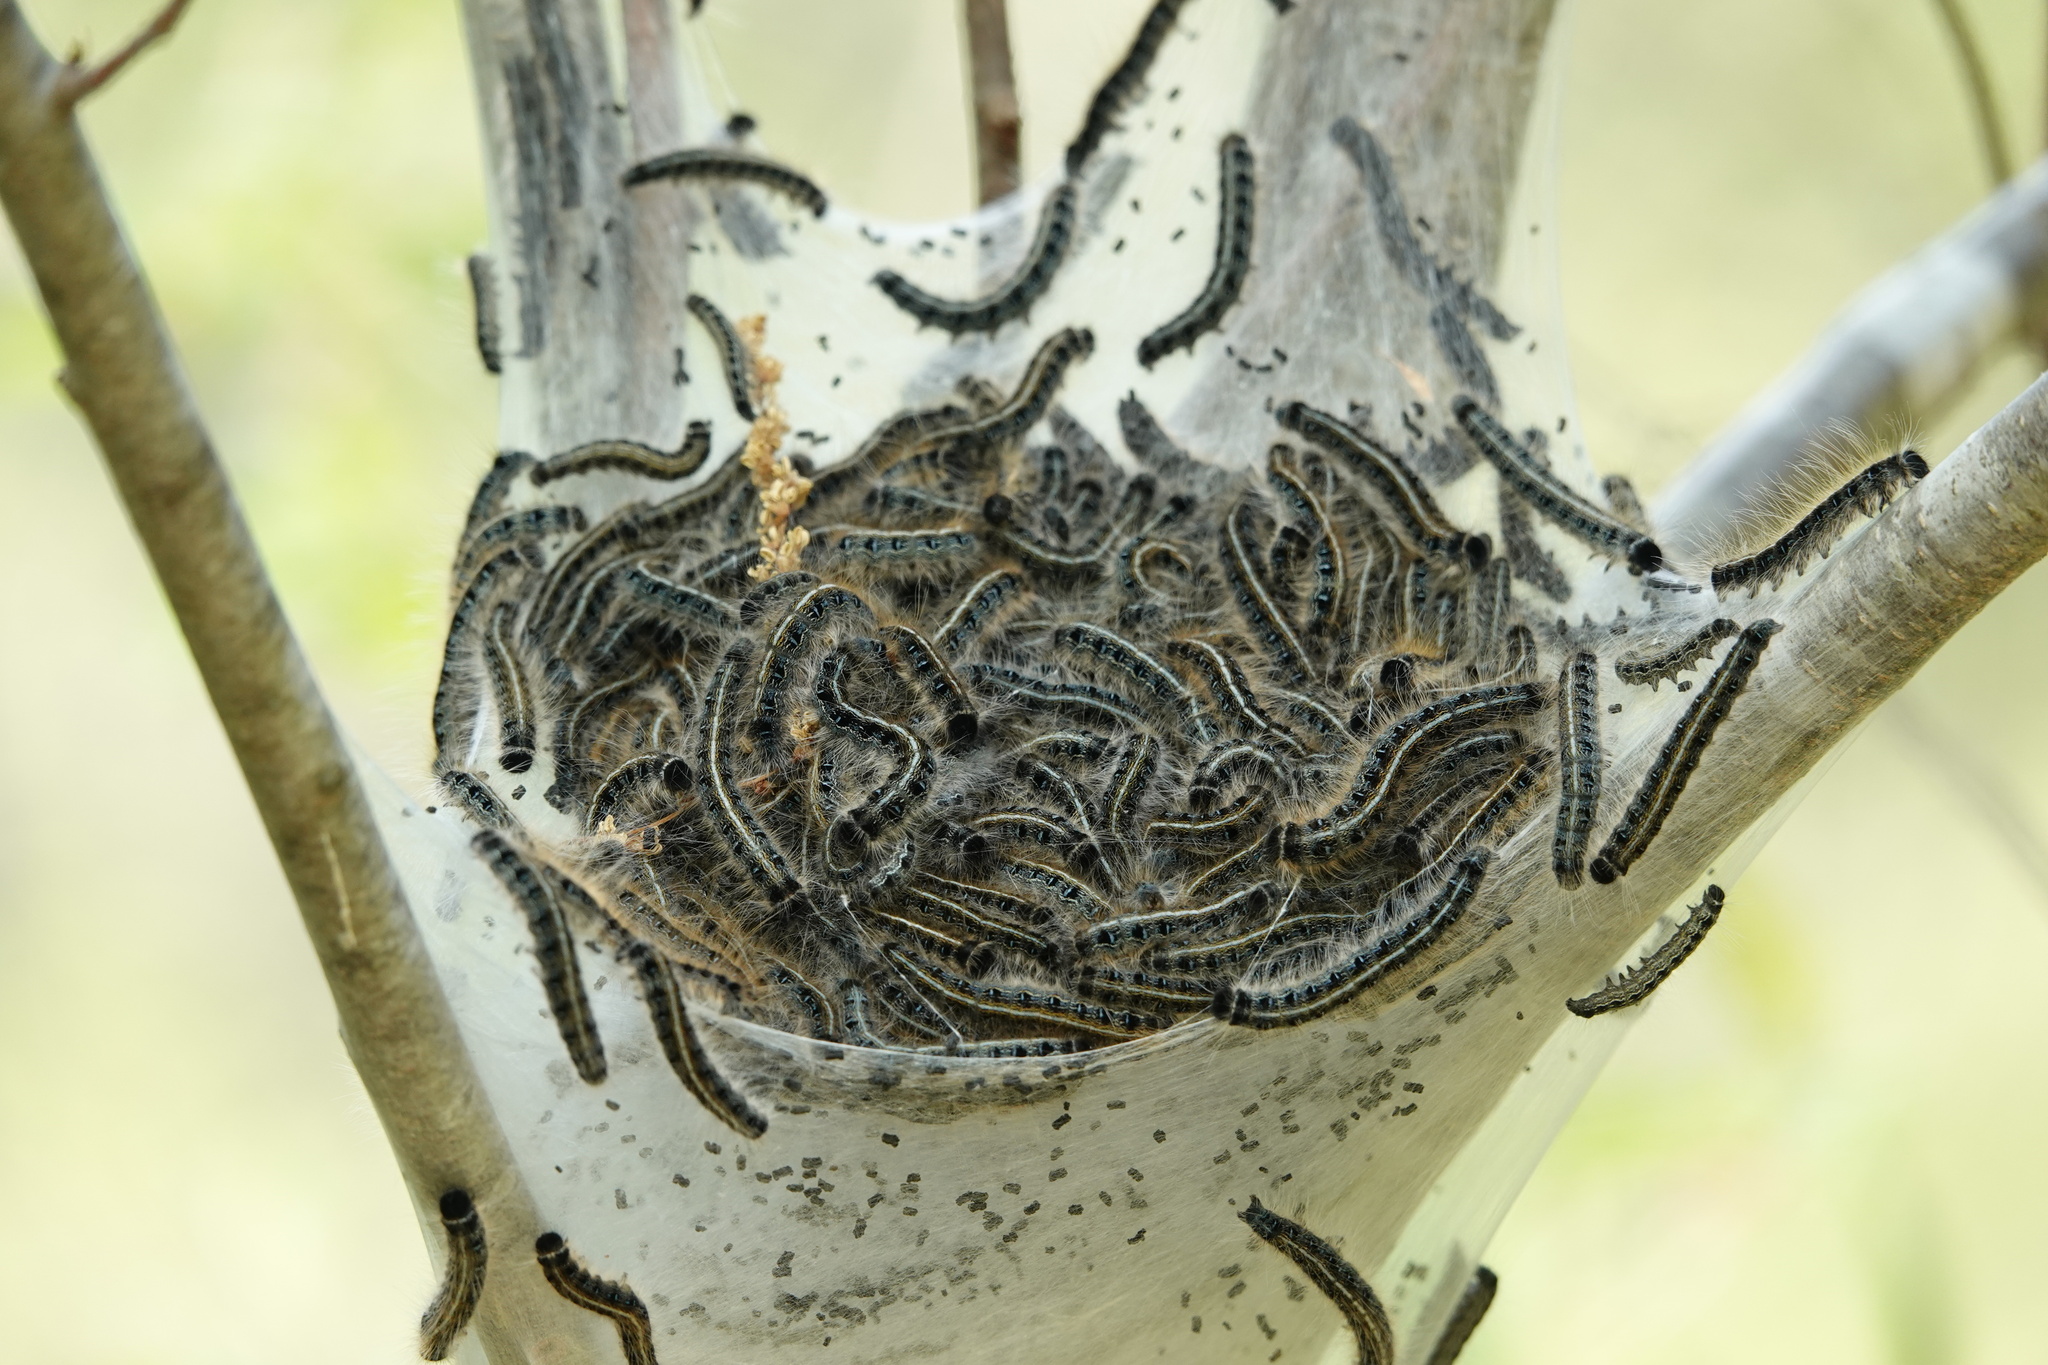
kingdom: Animalia
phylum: Arthropoda
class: Insecta
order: Lepidoptera
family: Lasiocampidae
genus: Malacosoma
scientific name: Malacosoma americana
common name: Eastern tent caterpillar moth
